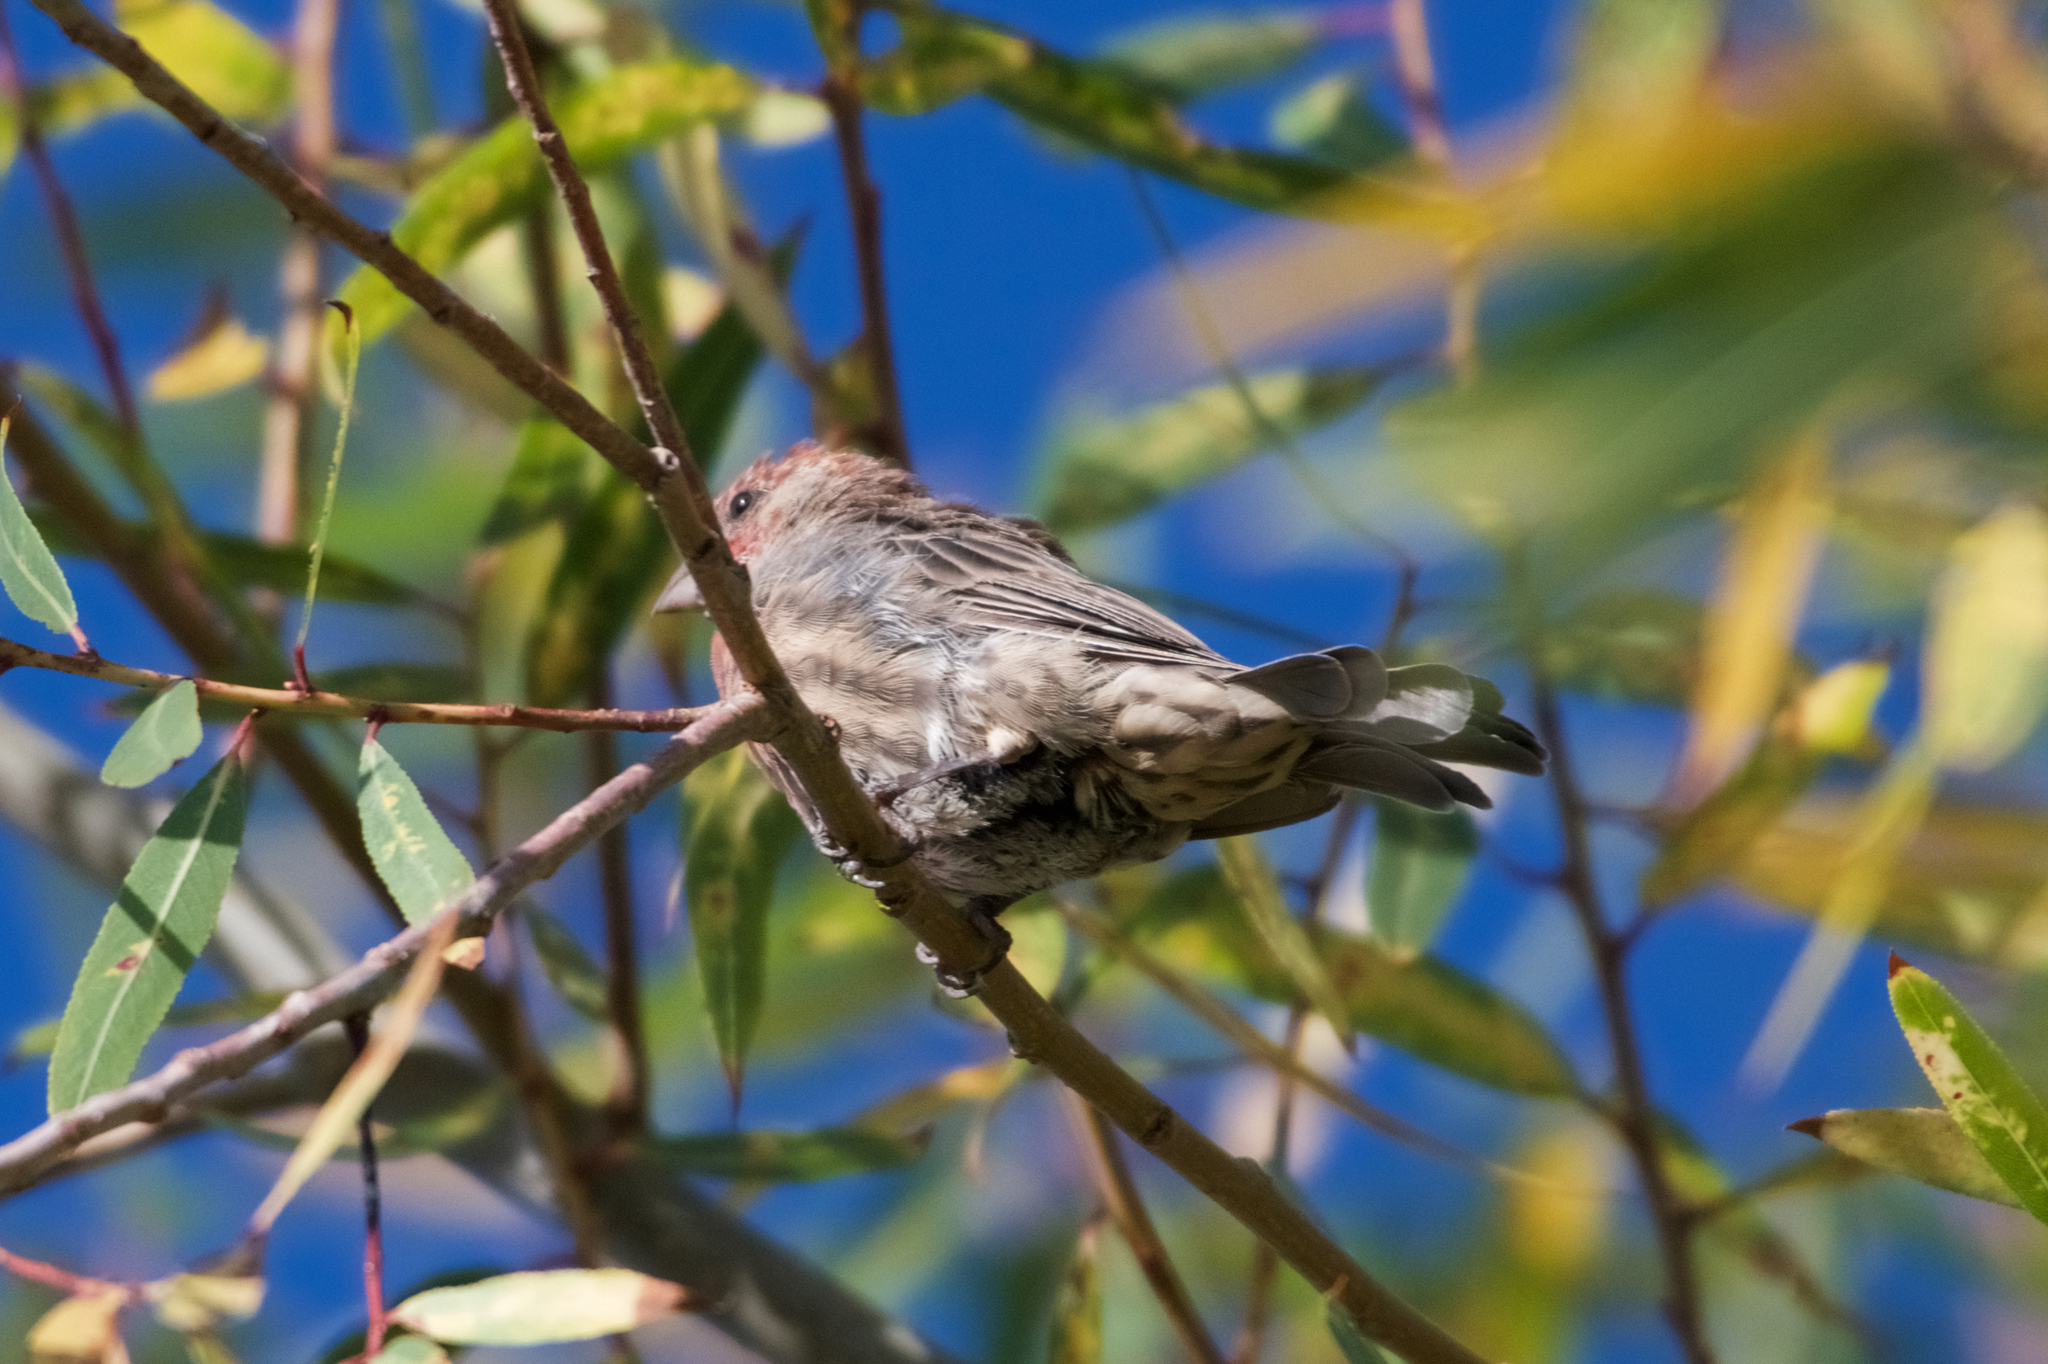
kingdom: Animalia
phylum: Chordata
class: Aves
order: Passeriformes
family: Fringillidae
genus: Haemorhous
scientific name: Haemorhous mexicanus
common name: House finch
